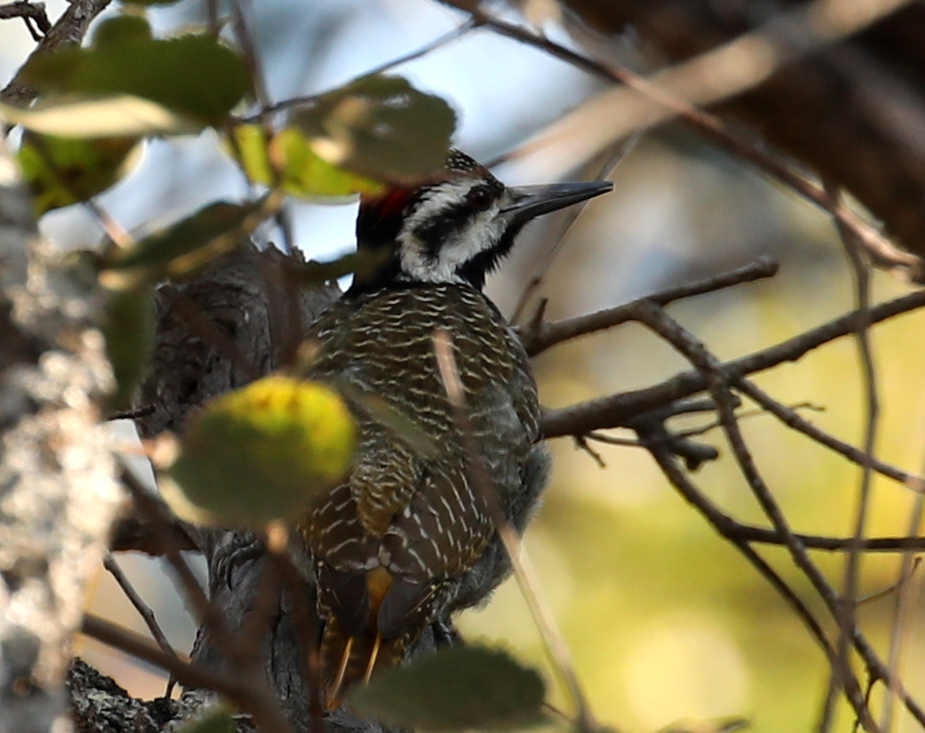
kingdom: Animalia
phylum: Chordata
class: Aves
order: Piciformes
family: Picidae
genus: Chloropicus
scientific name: Chloropicus namaquus
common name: Bearded woodpecker
